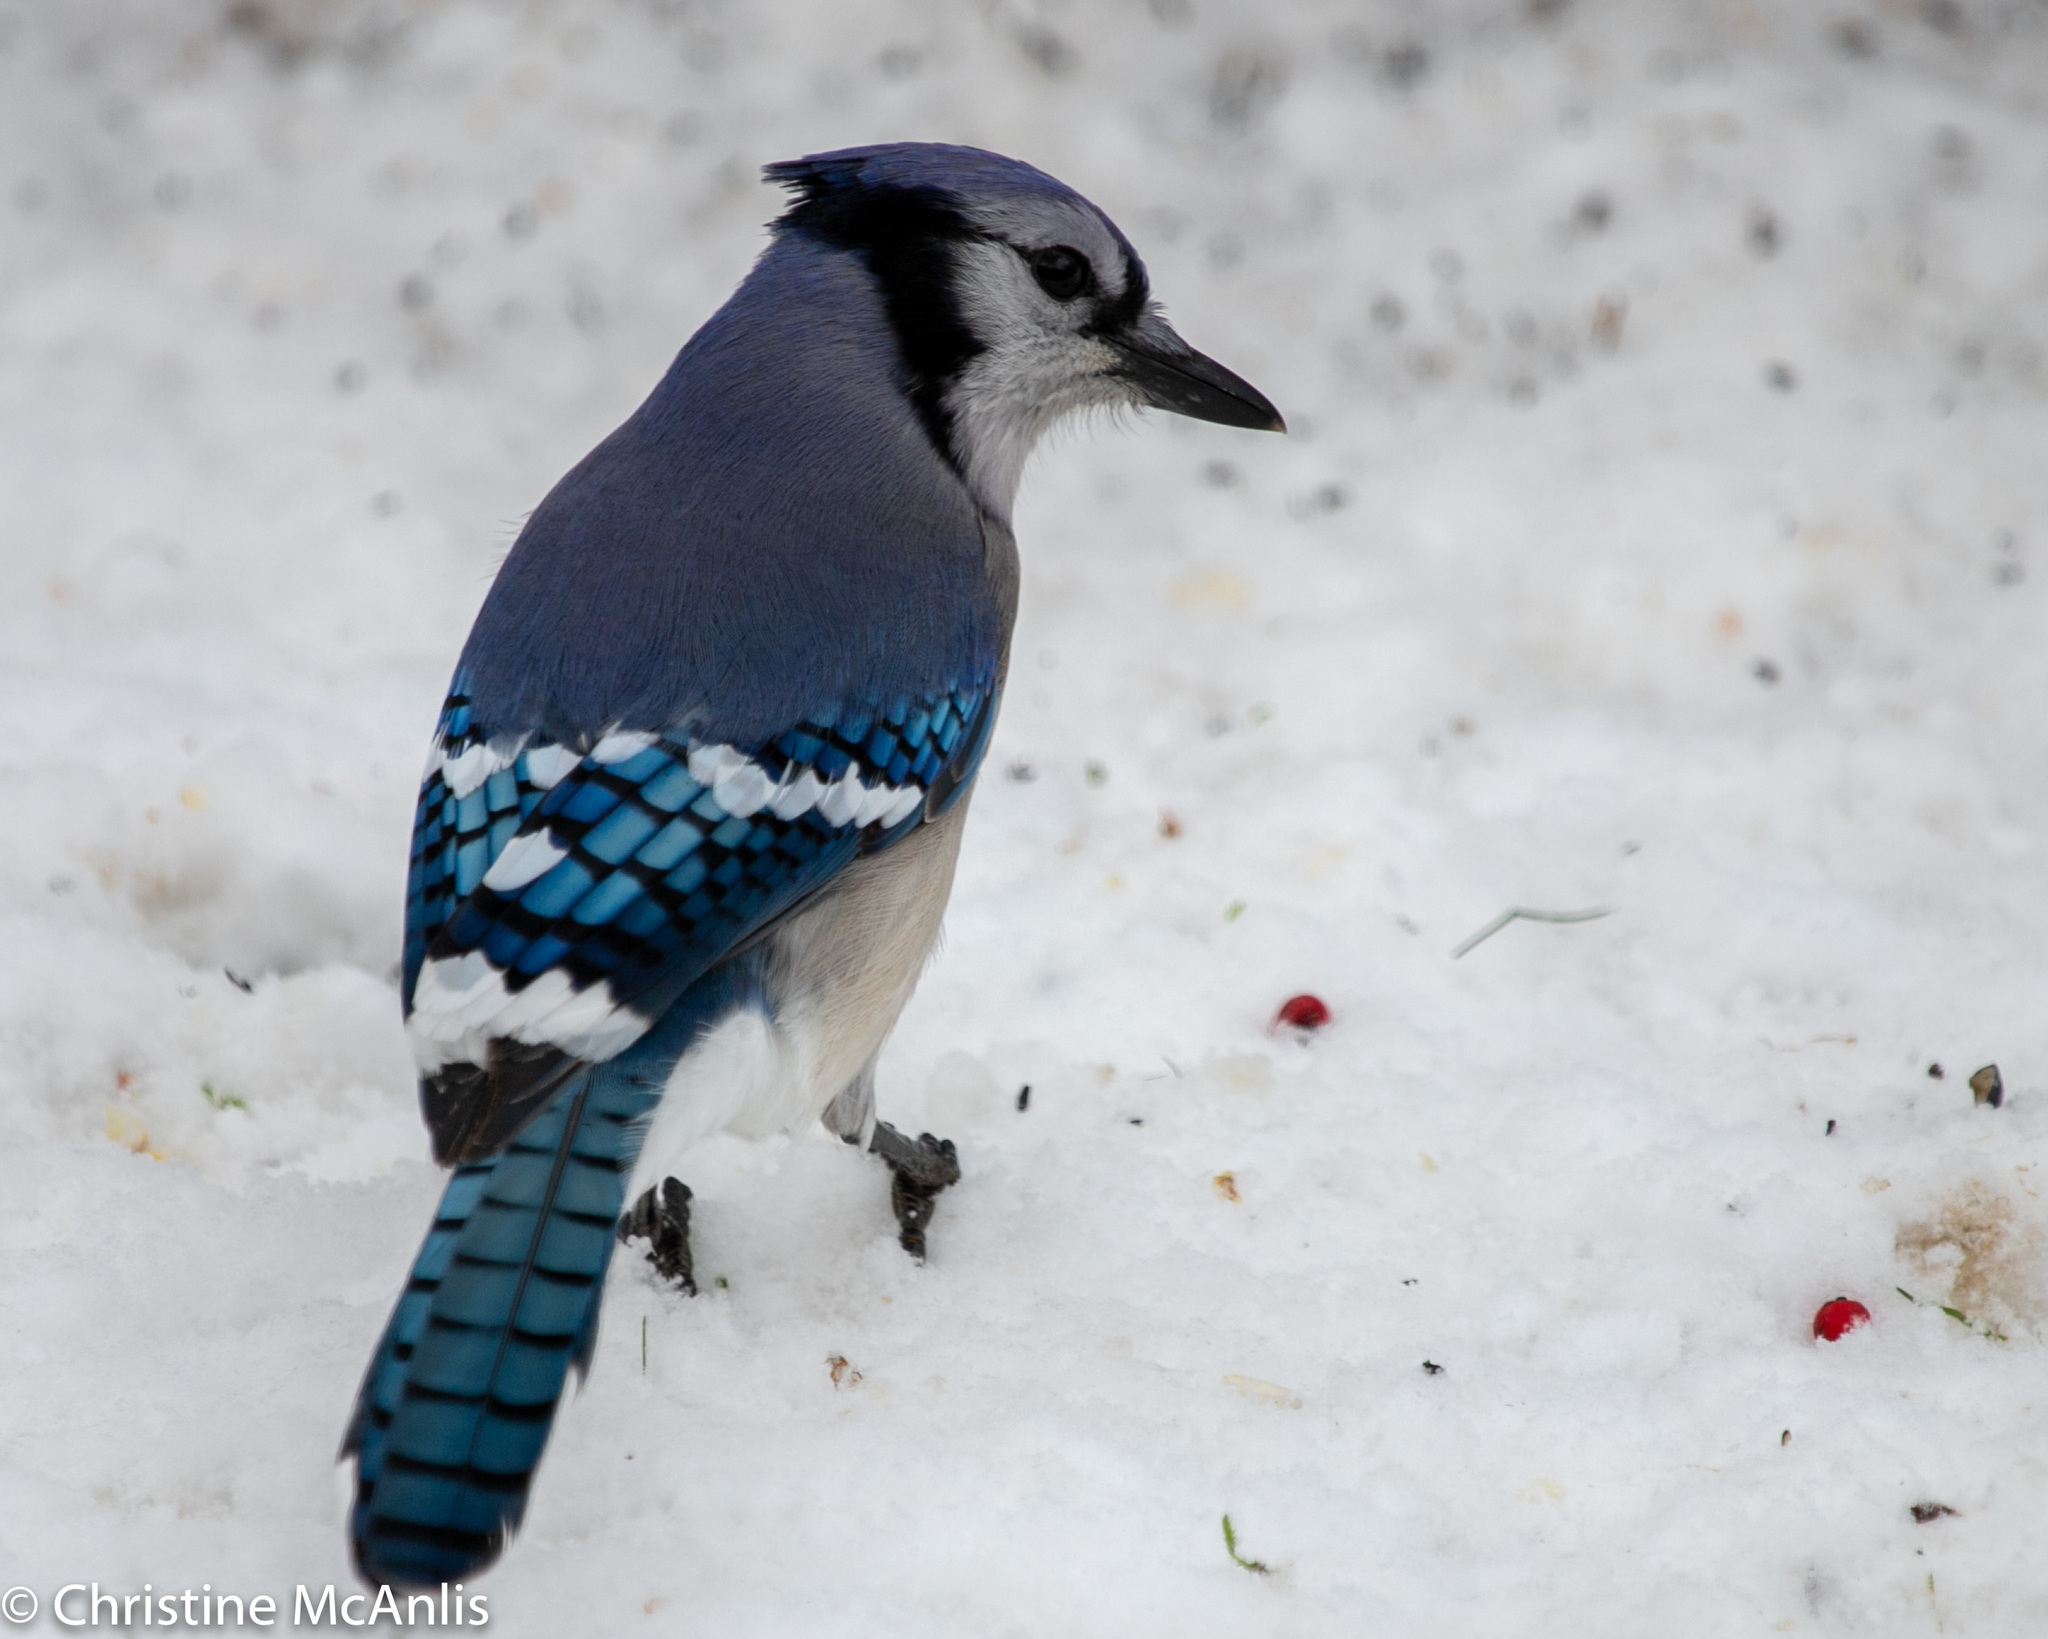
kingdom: Animalia
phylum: Chordata
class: Aves
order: Passeriformes
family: Corvidae
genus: Cyanocitta
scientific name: Cyanocitta cristata
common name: Blue jay
